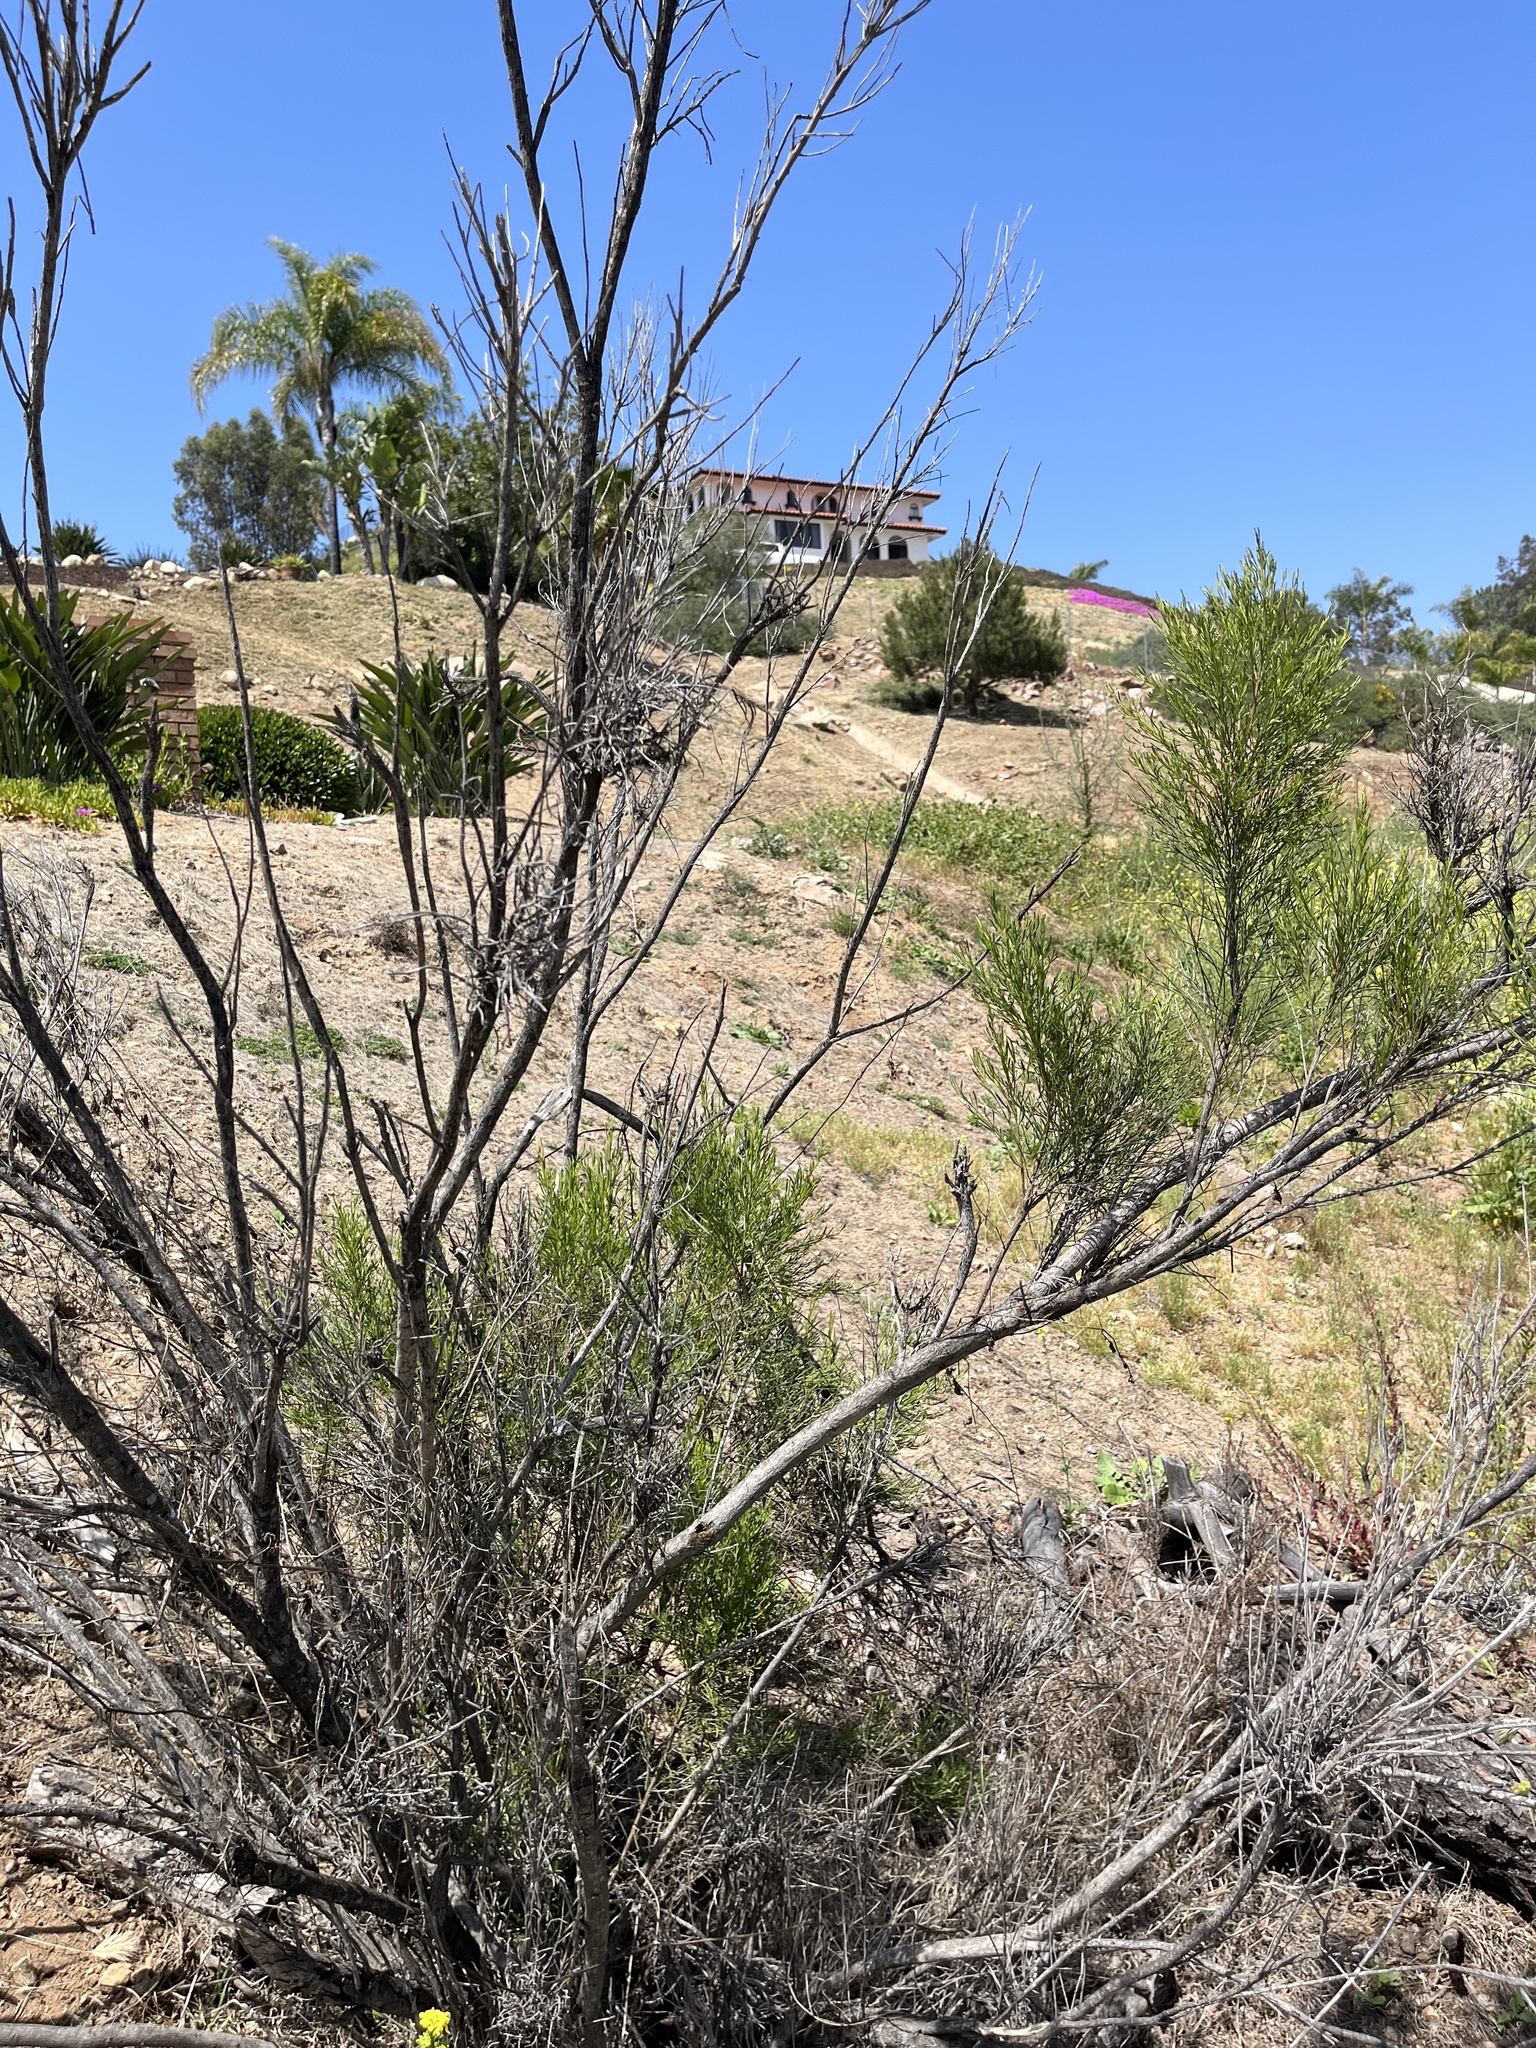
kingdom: Plantae
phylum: Tracheophyta
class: Magnoliopsida
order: Asterales
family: Asteraceae
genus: Baccharis
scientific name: Baccharis sarothroides
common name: Desert-broom
